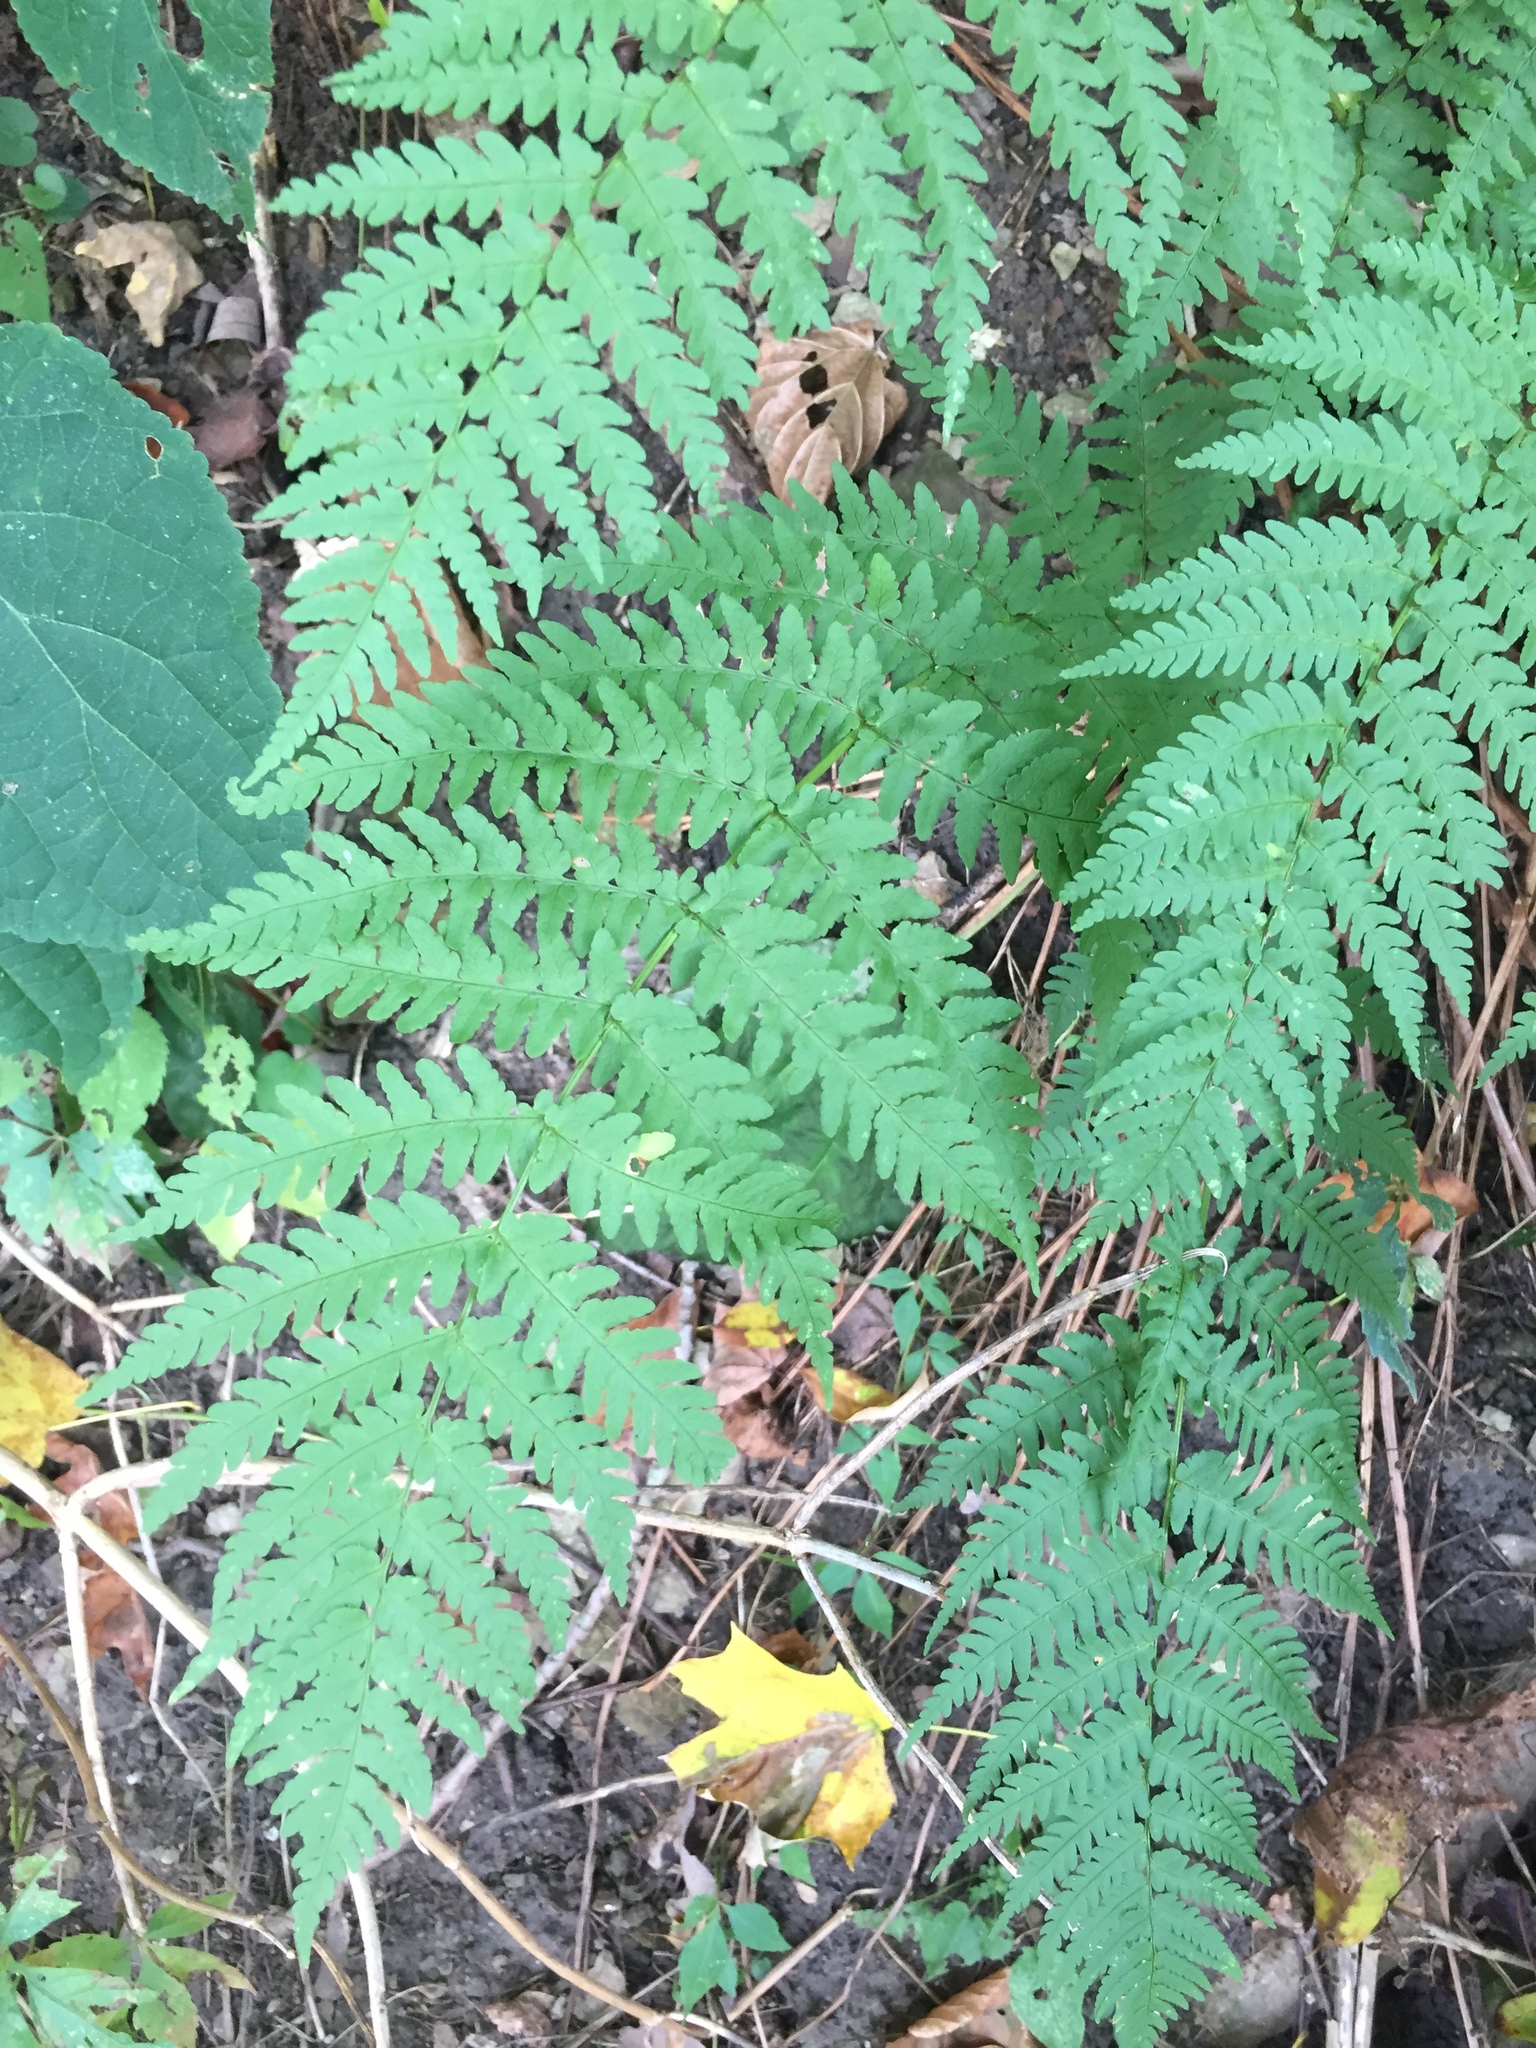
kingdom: Plantae
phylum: Tracheophyta
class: Polypodiopsida
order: Polypodiales
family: Dryopteridaceae
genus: Dryopteris
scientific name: Dryopteris marginalis
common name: Marginal wood fern
